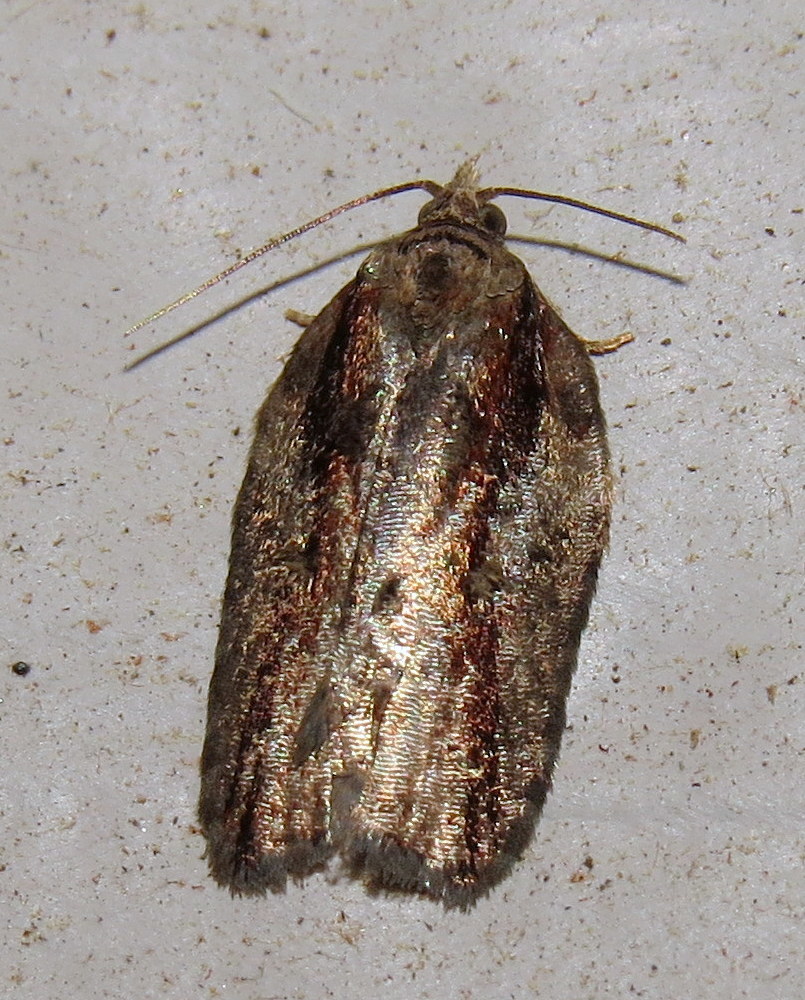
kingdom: Animalia
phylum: Arthropoda
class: Insecta
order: Lepidoptera
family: Tortricidae
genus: Acleris
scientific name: Acleris flavivittana
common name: Multiform leafroller moth
